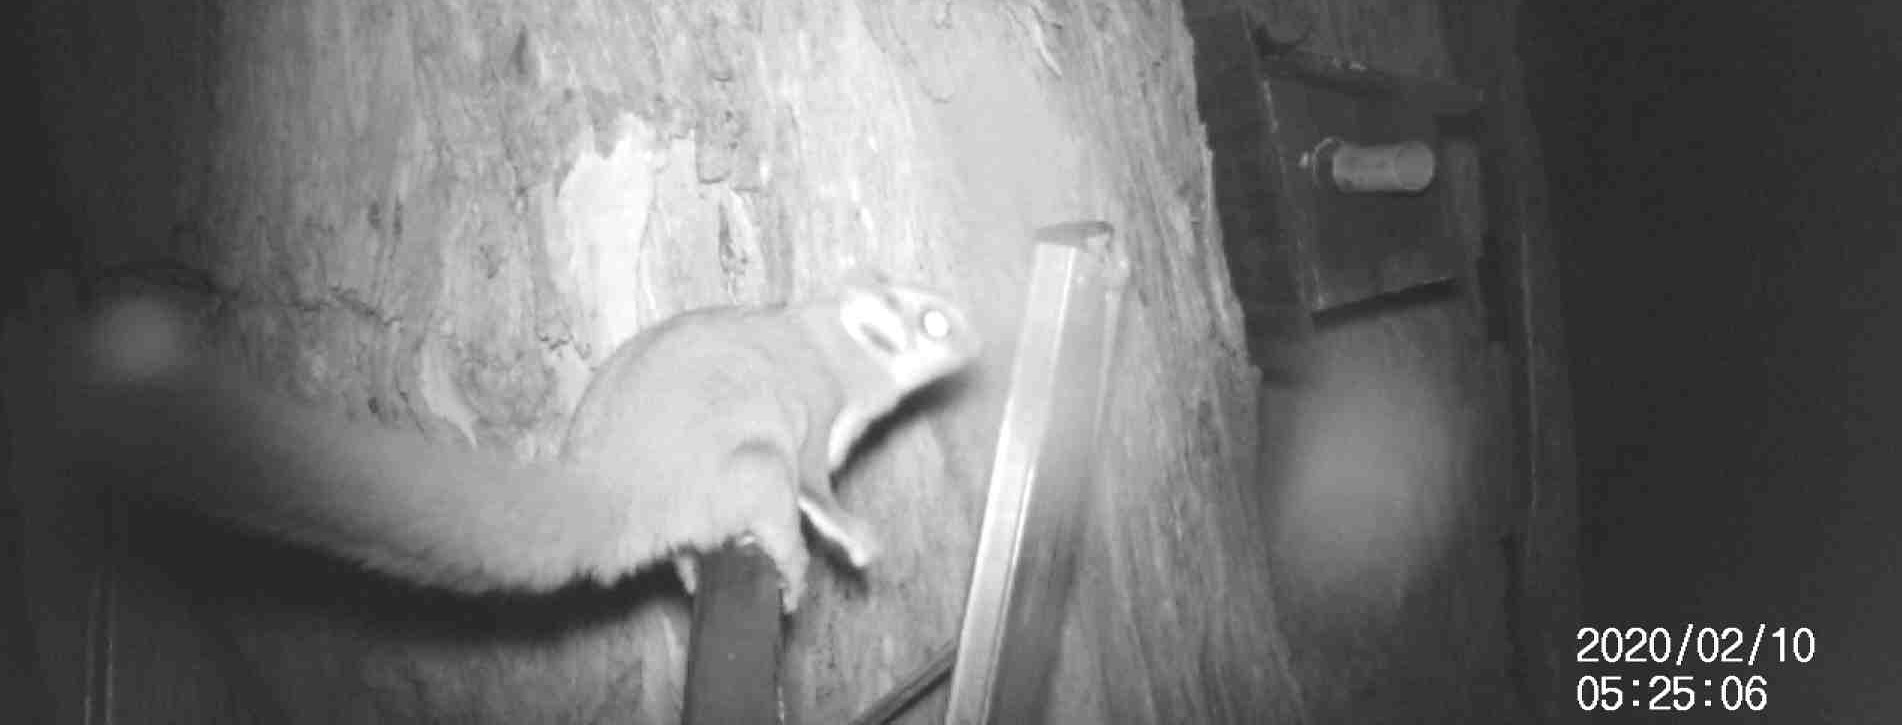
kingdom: Animalia
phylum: Chordata
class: Mammalia
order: Diprotodontia
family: Petauridae
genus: Petaurus
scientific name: Petaurus breviceps
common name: Sugar glider
